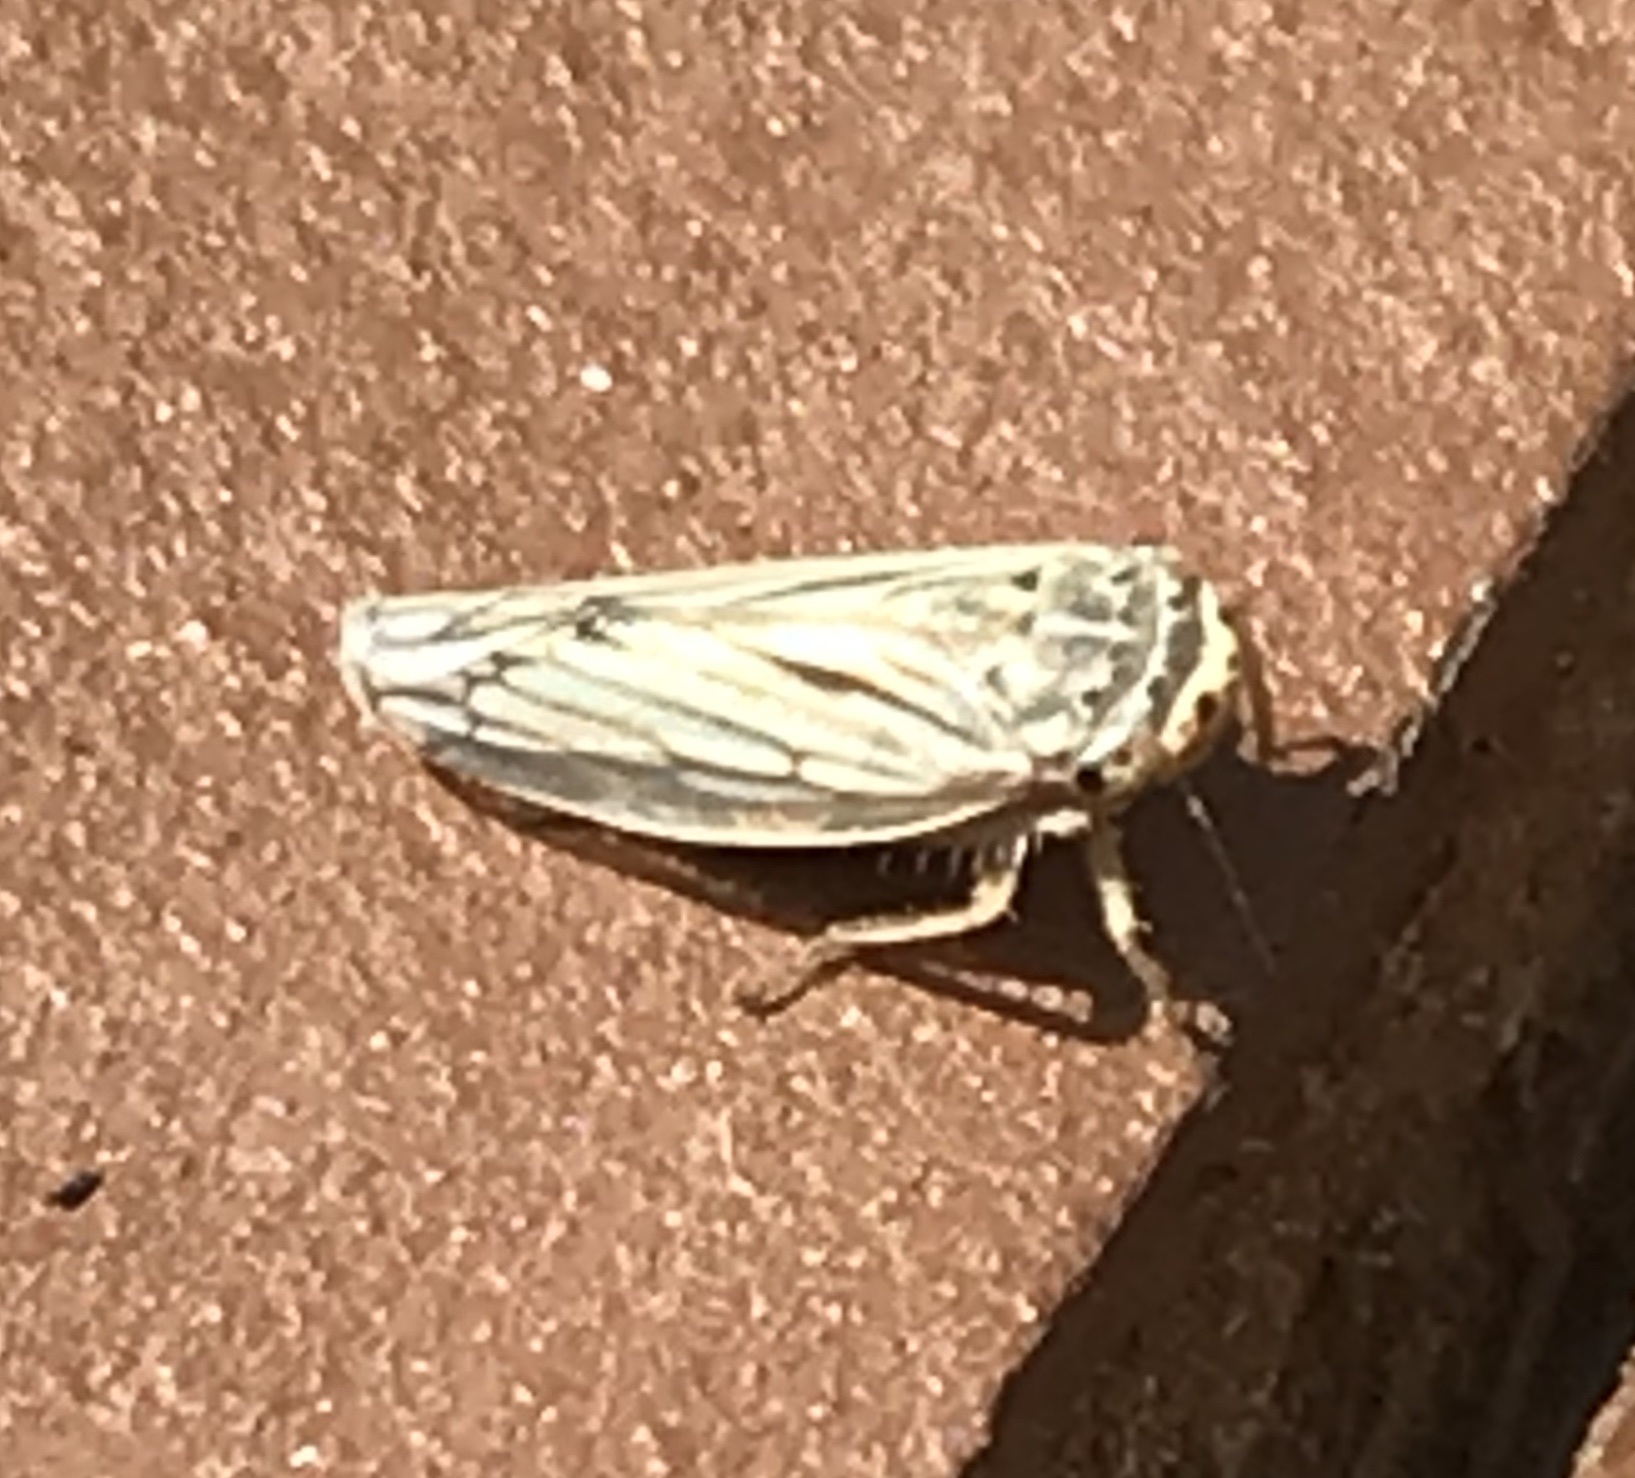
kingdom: Animalia
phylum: Arthropoda
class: Insecta
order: Hemiptera
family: Cicadellidae
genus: Exitianus
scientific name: Exitianus exitiosus
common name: Gray lawn leafhopper
